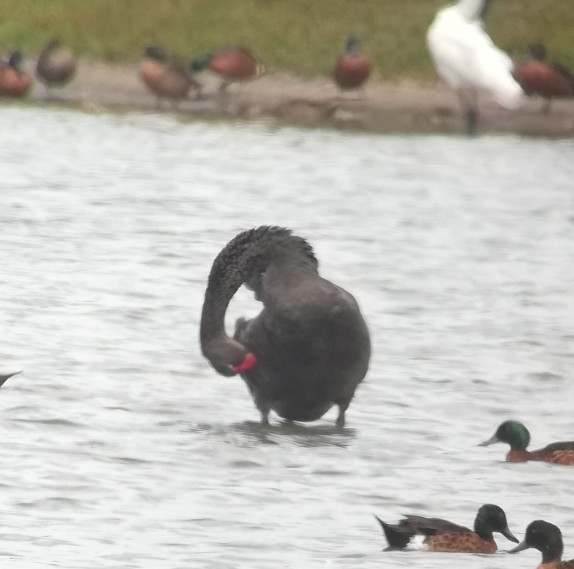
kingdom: Animalia
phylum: Chordata
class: Aves
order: Anseriformes
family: Anatidae
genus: Cygnus
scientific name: Cygnus atratus
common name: Black swan
